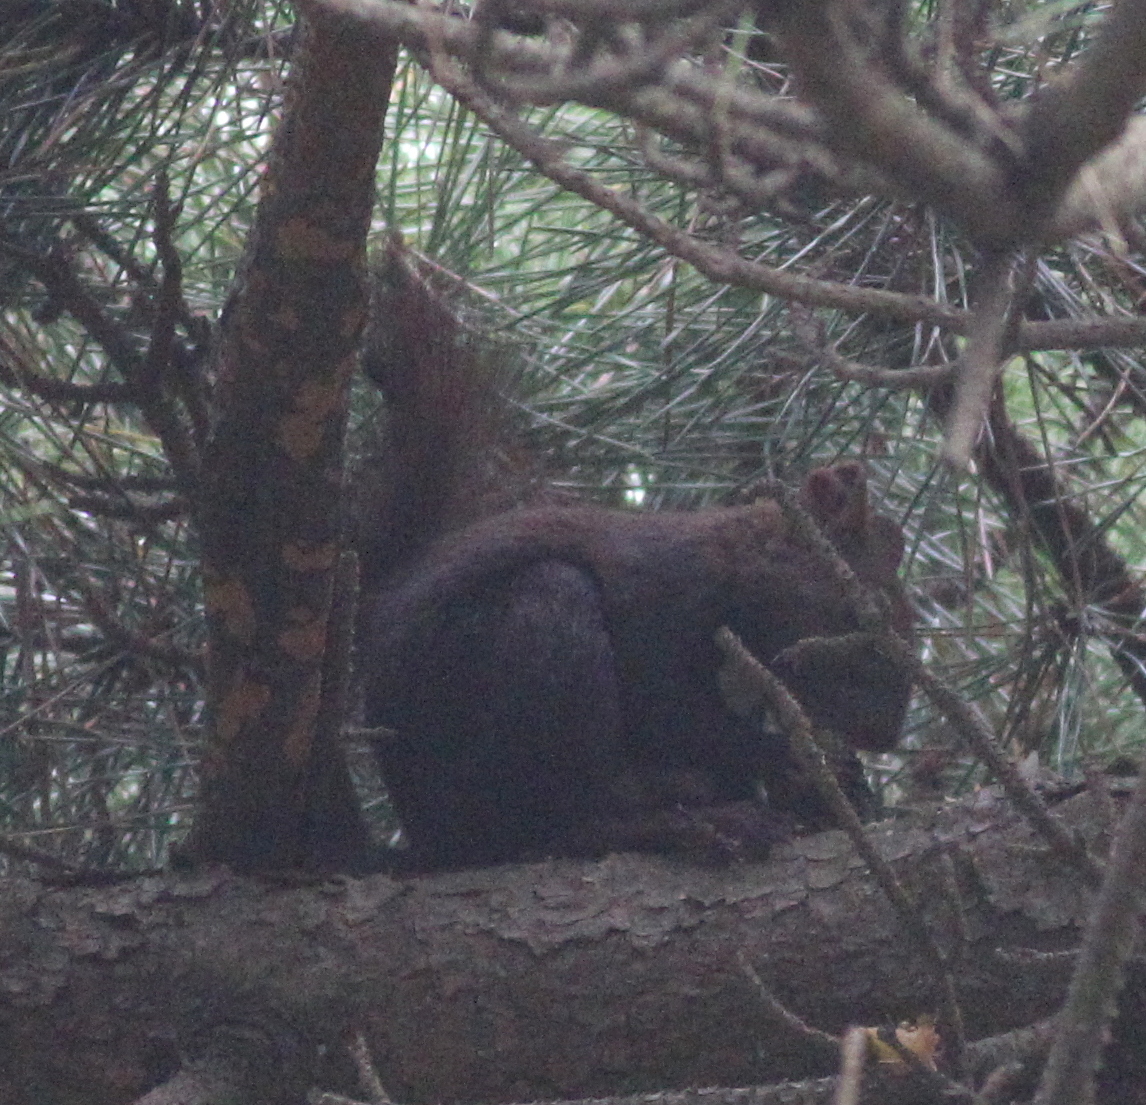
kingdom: Animalia
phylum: Chordata
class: Mammalia
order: Rodentia
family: Sciuridae
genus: Sciurus
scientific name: Sciurus vulgaris
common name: Eurasian red squirrel
